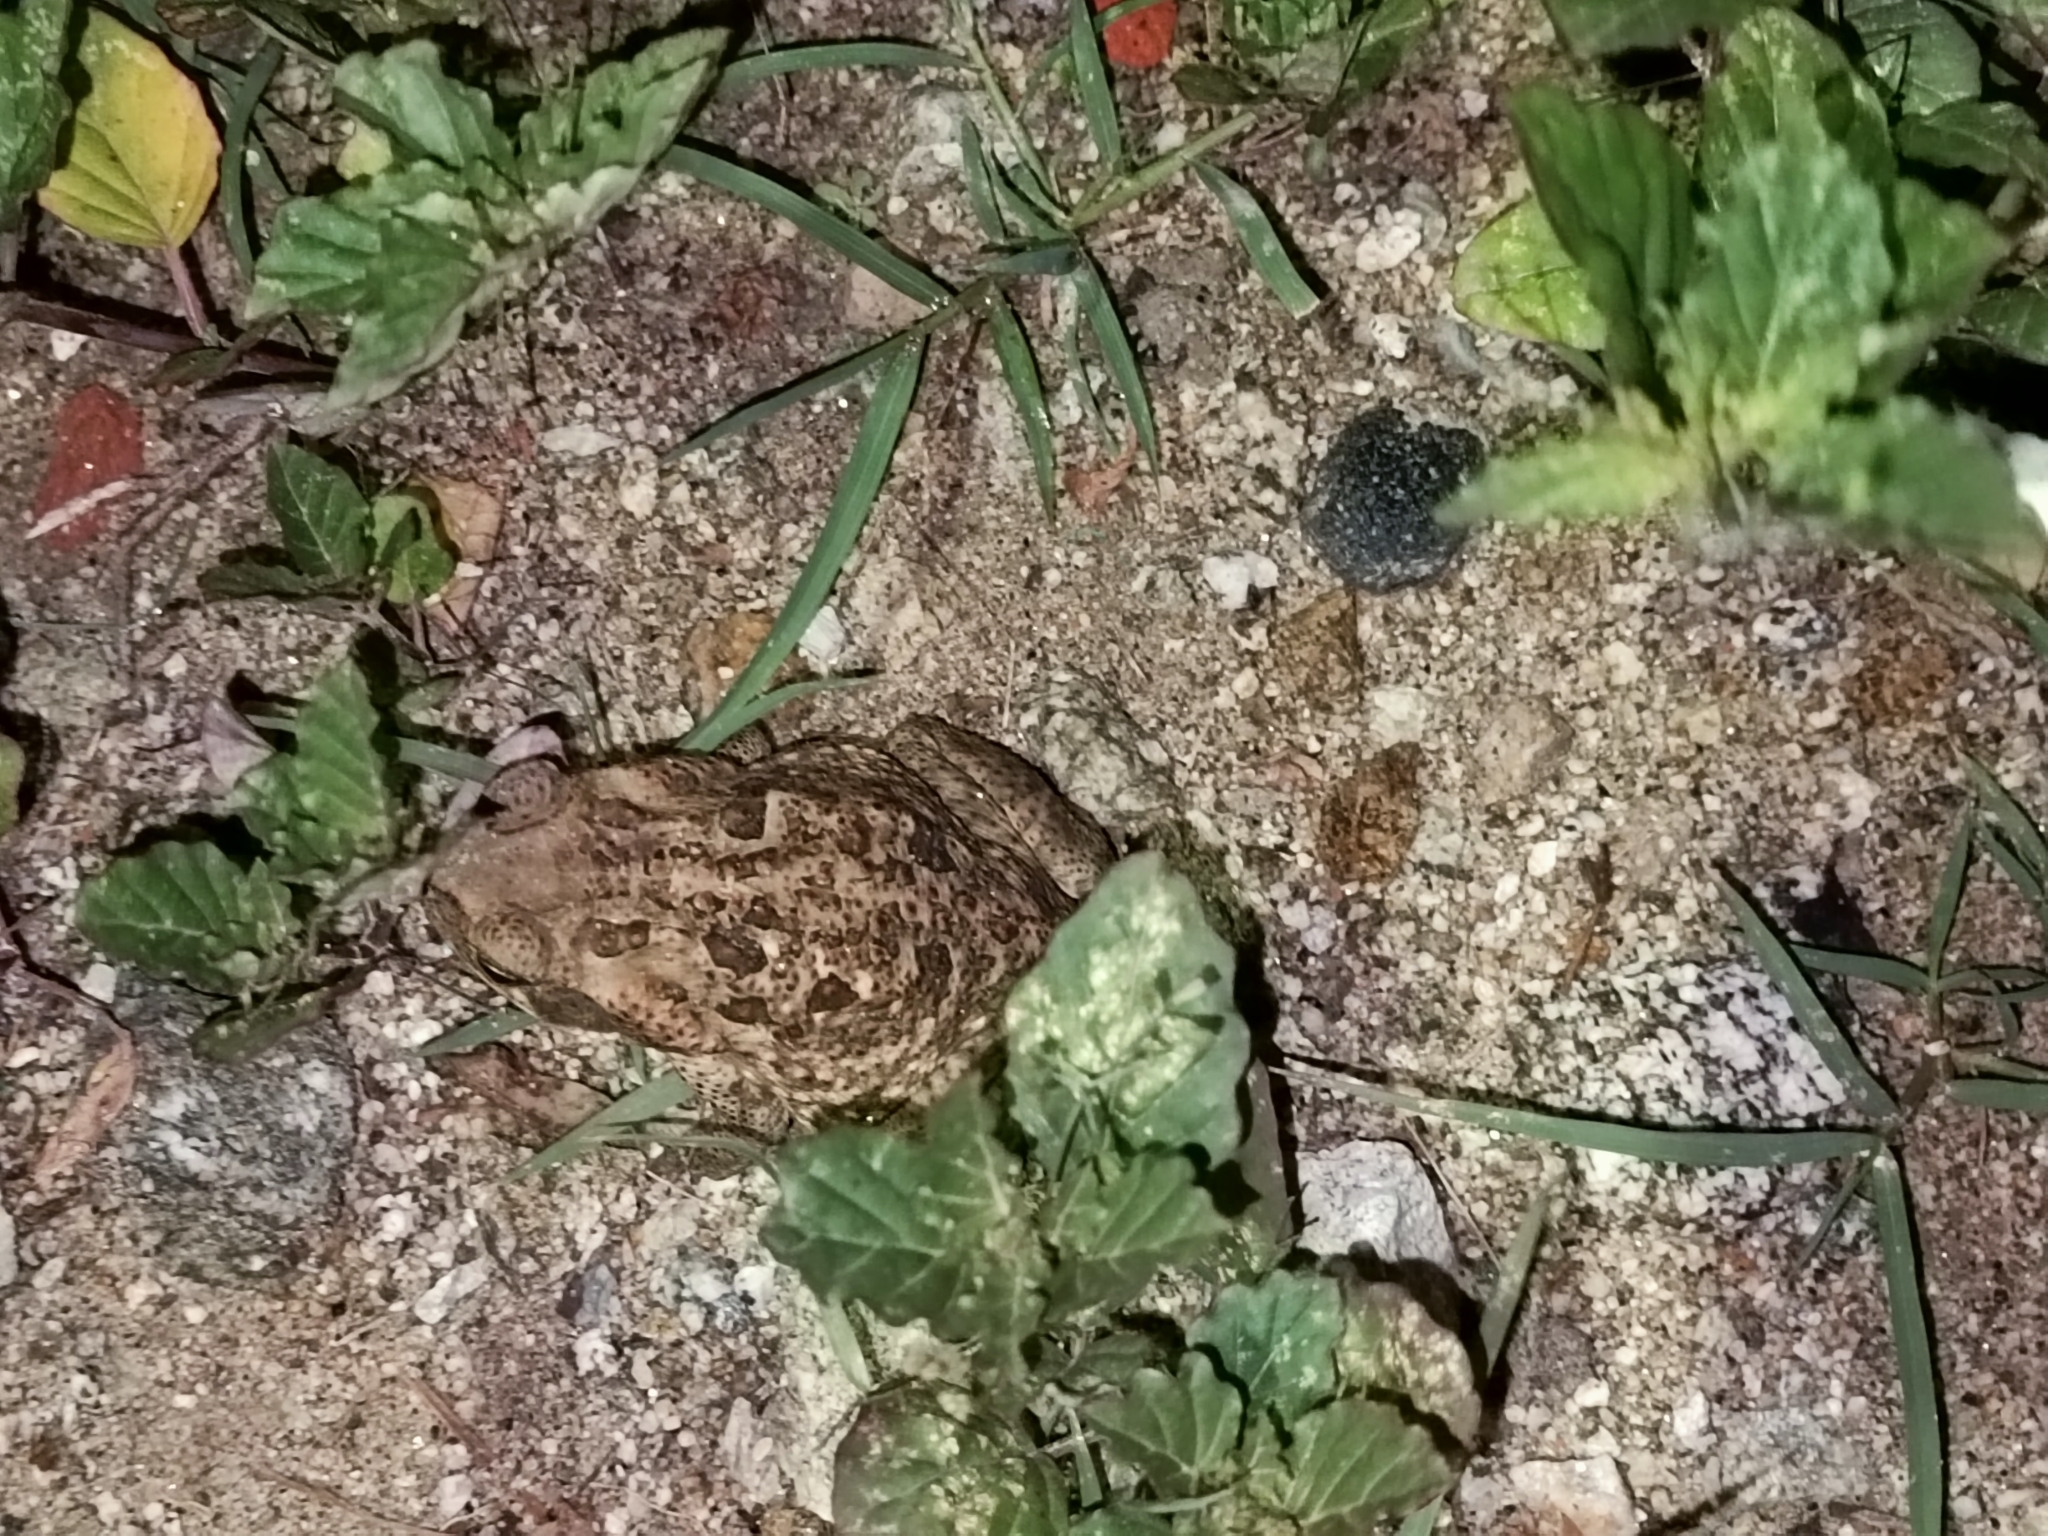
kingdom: Animalia
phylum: Chordata
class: Amphibia
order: Anura
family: Bufonidae
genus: Rhinella
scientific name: Rhinella horribilis
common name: Mesoamerican cane toad
